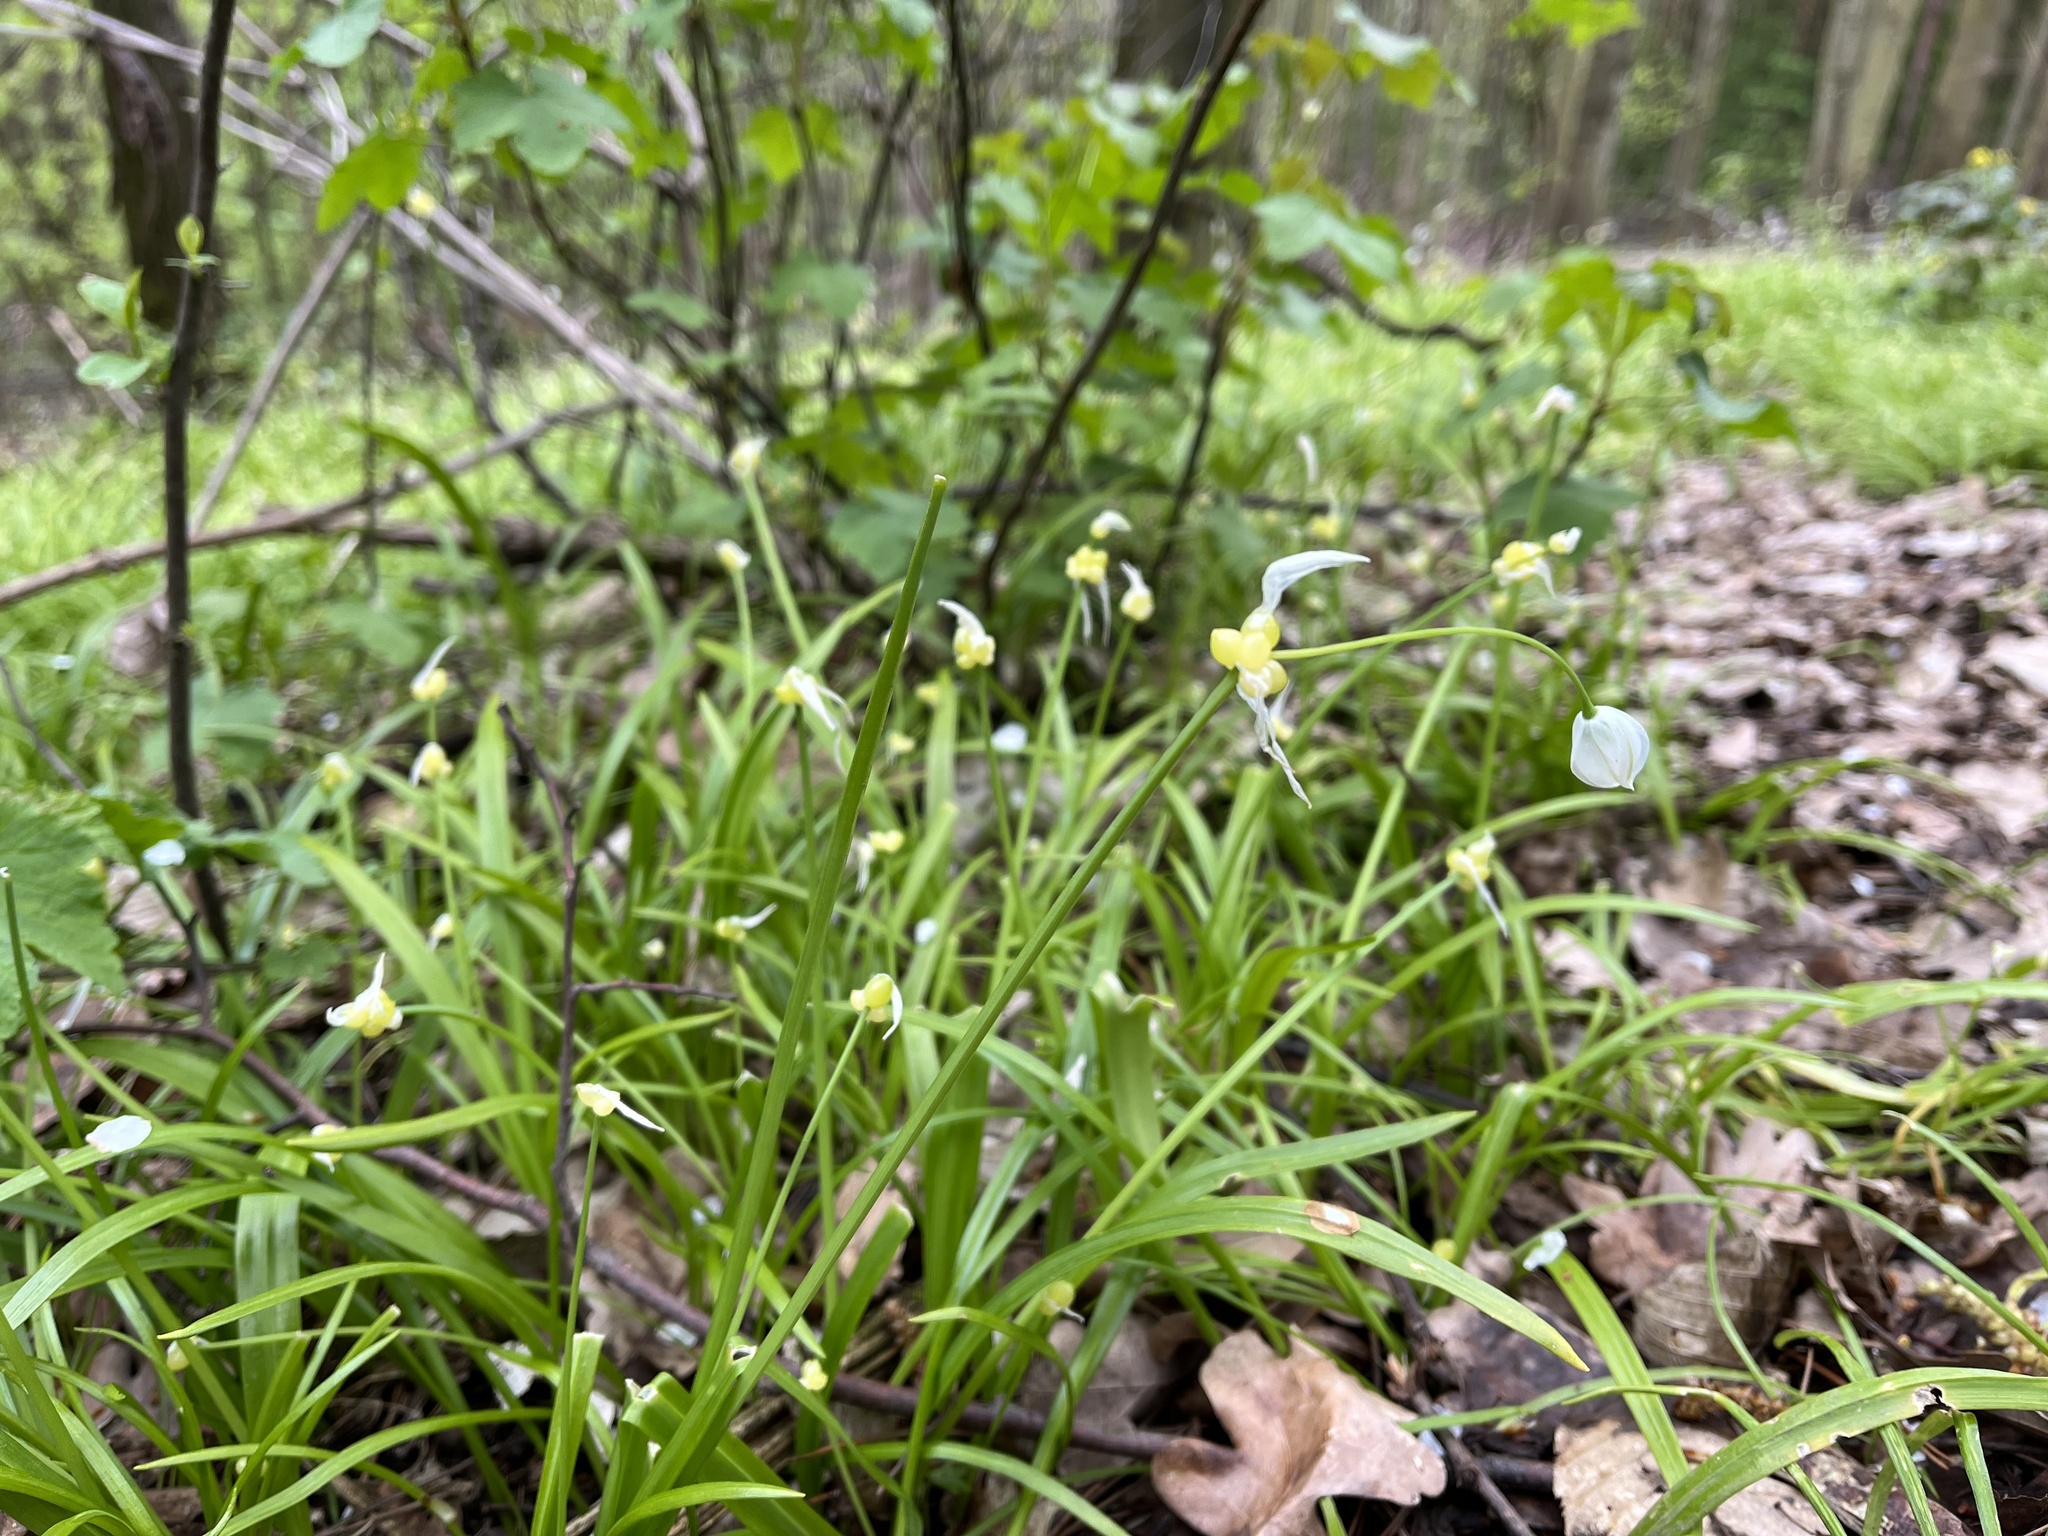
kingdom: Plantae
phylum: Tracheophyta
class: Liliopsida
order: Asparagales
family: Amaryllidaceae
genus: Allium
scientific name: Allium paradoxum
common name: Few-flowered garlic
